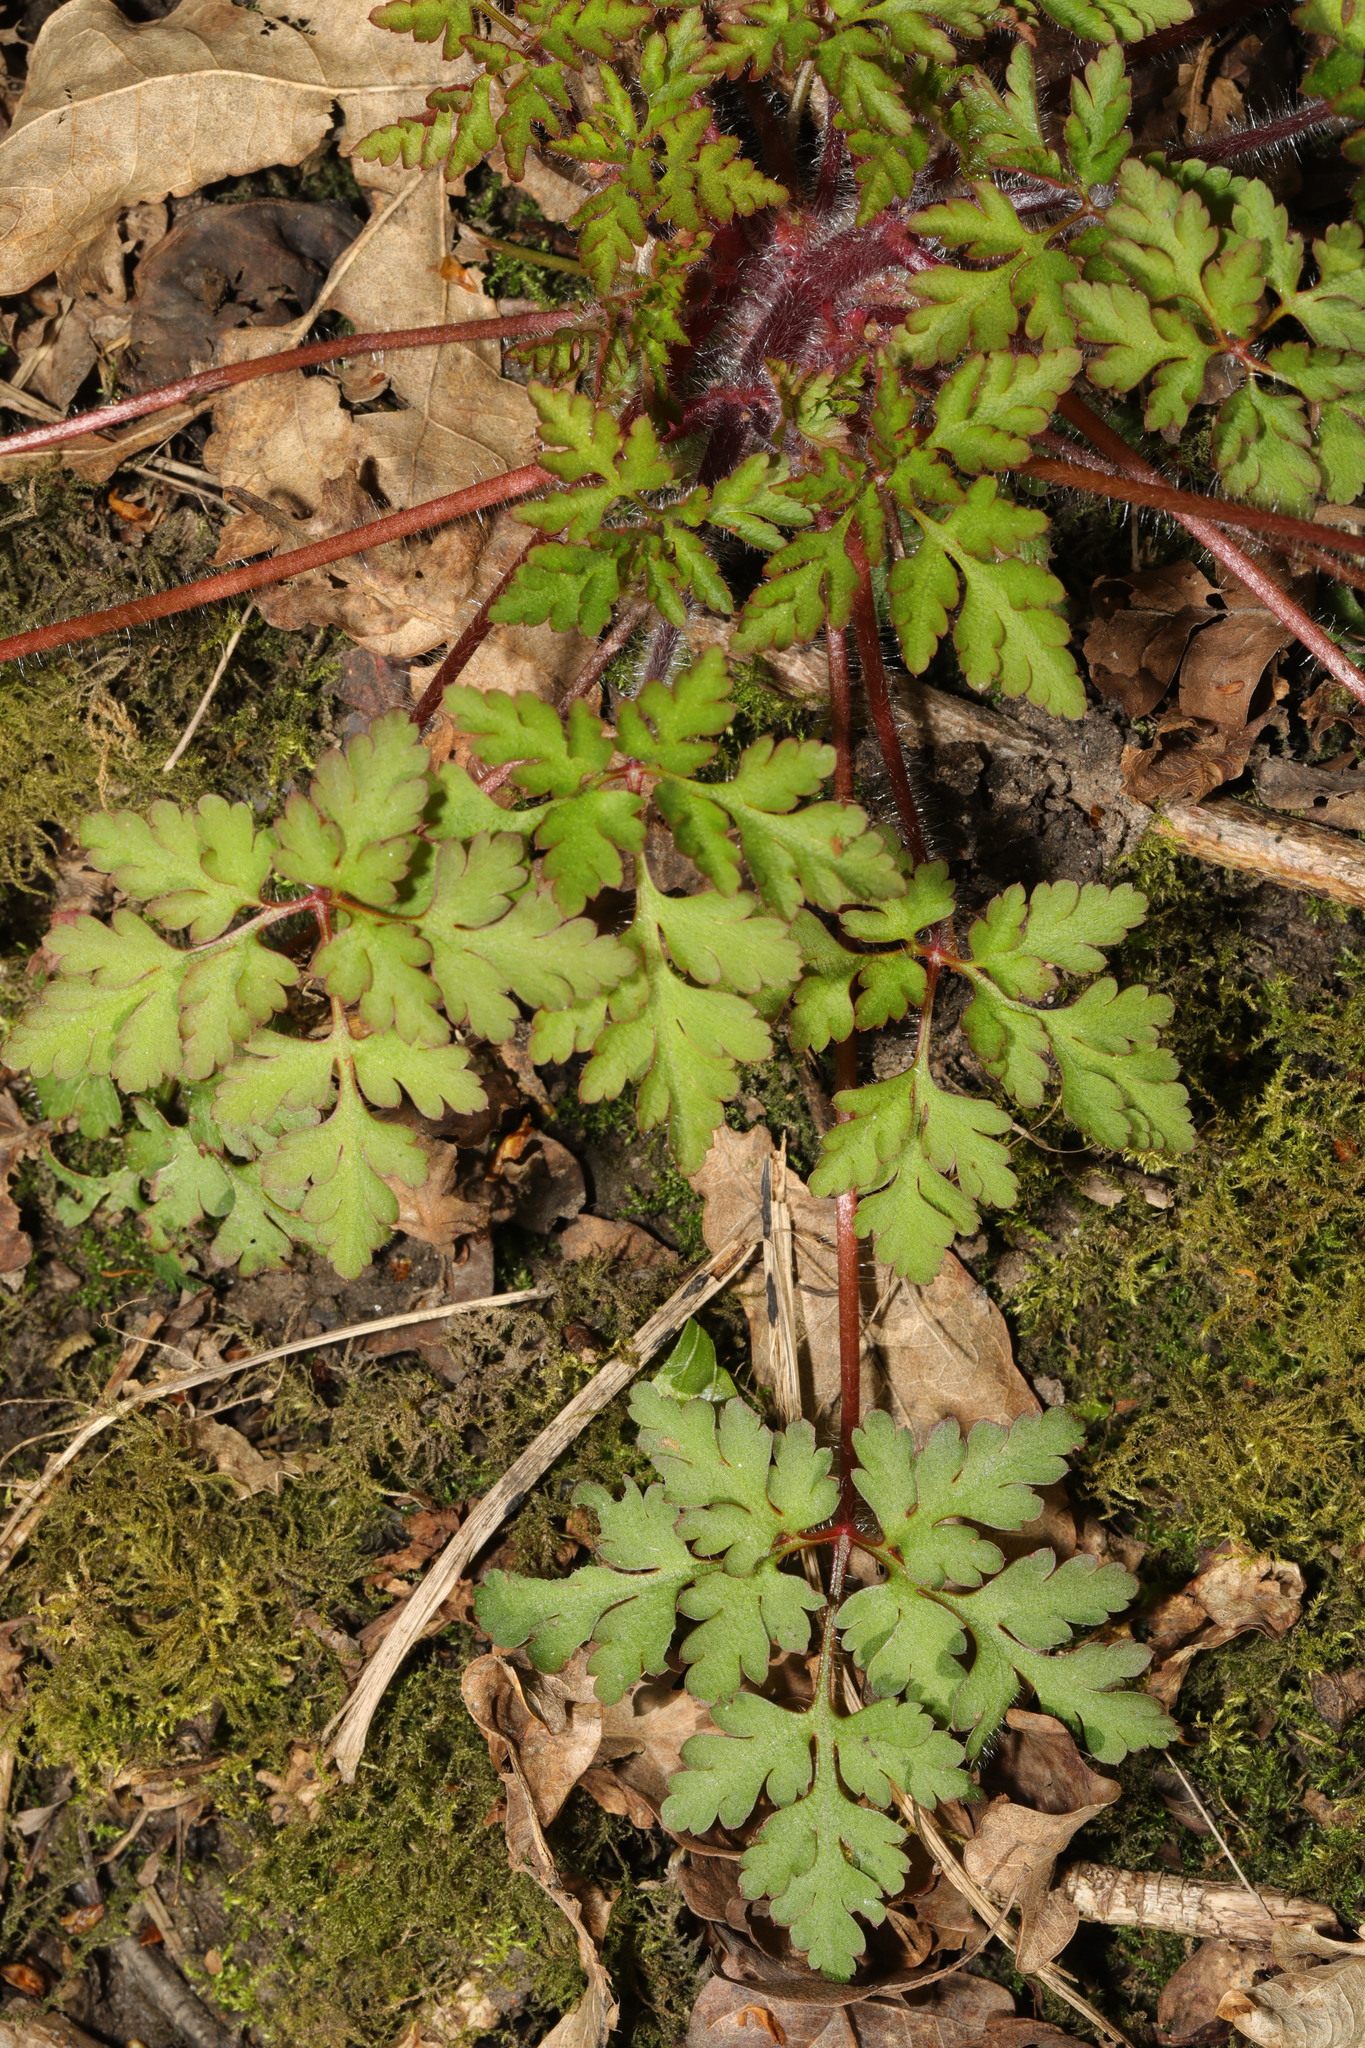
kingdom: Plantae
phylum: Tracheophyta
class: Magnoliopsida
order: Geraniales
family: Geraniaceae
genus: Geranium
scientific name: Geranium robertianum
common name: Herb-robert
